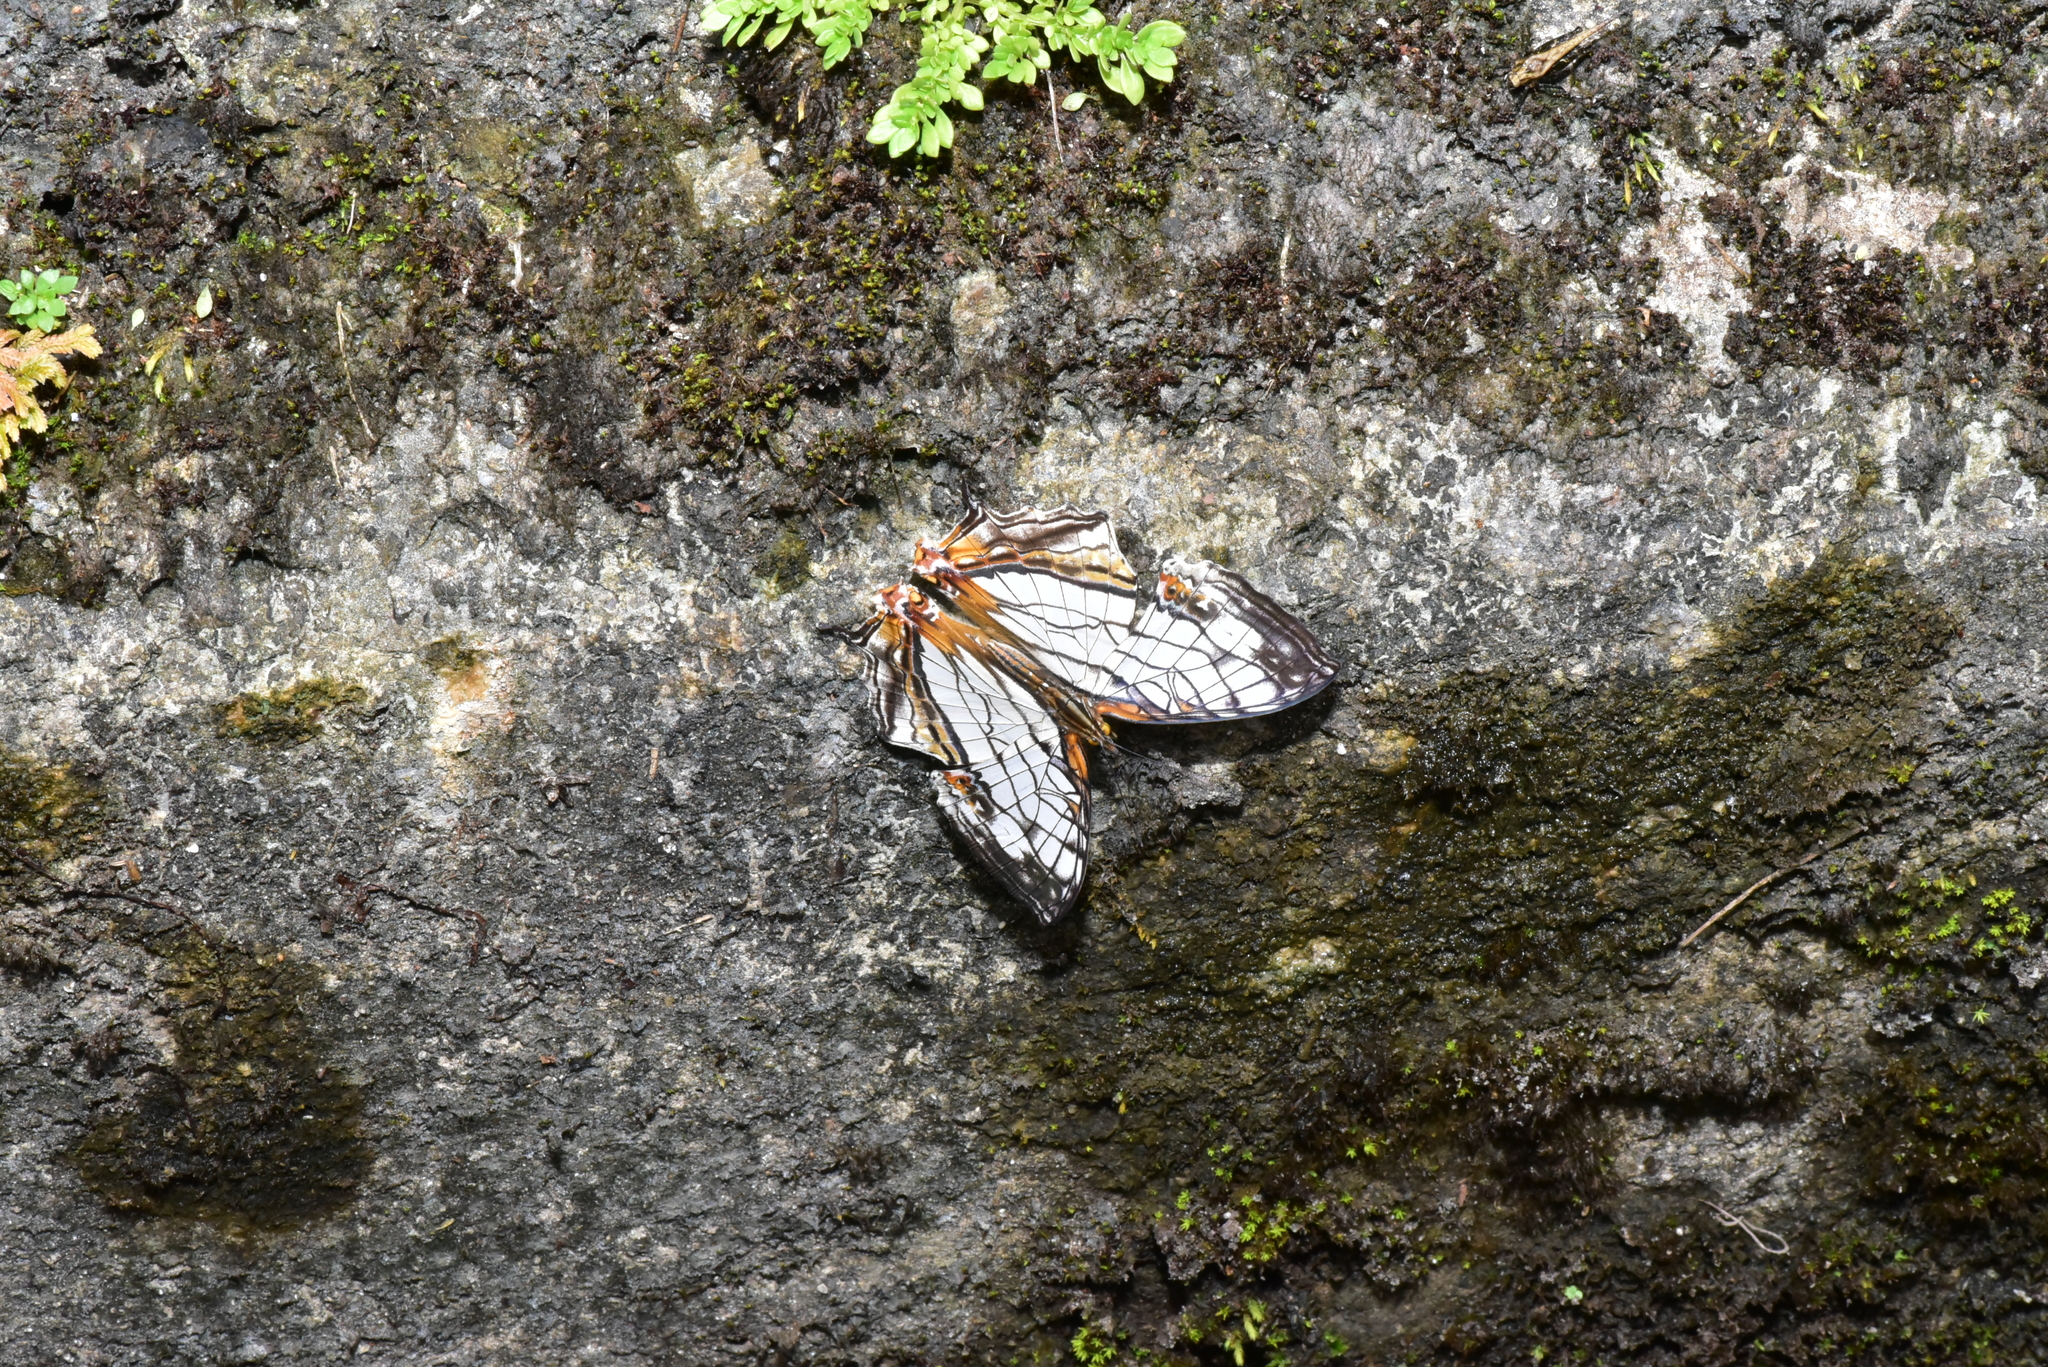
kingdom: Animalia
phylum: Arthropoda
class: Insecta
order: Lepidoptera
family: Nymphalidae
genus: Cyrestis
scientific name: Cyrestis thyodamas
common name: Common mapwing
